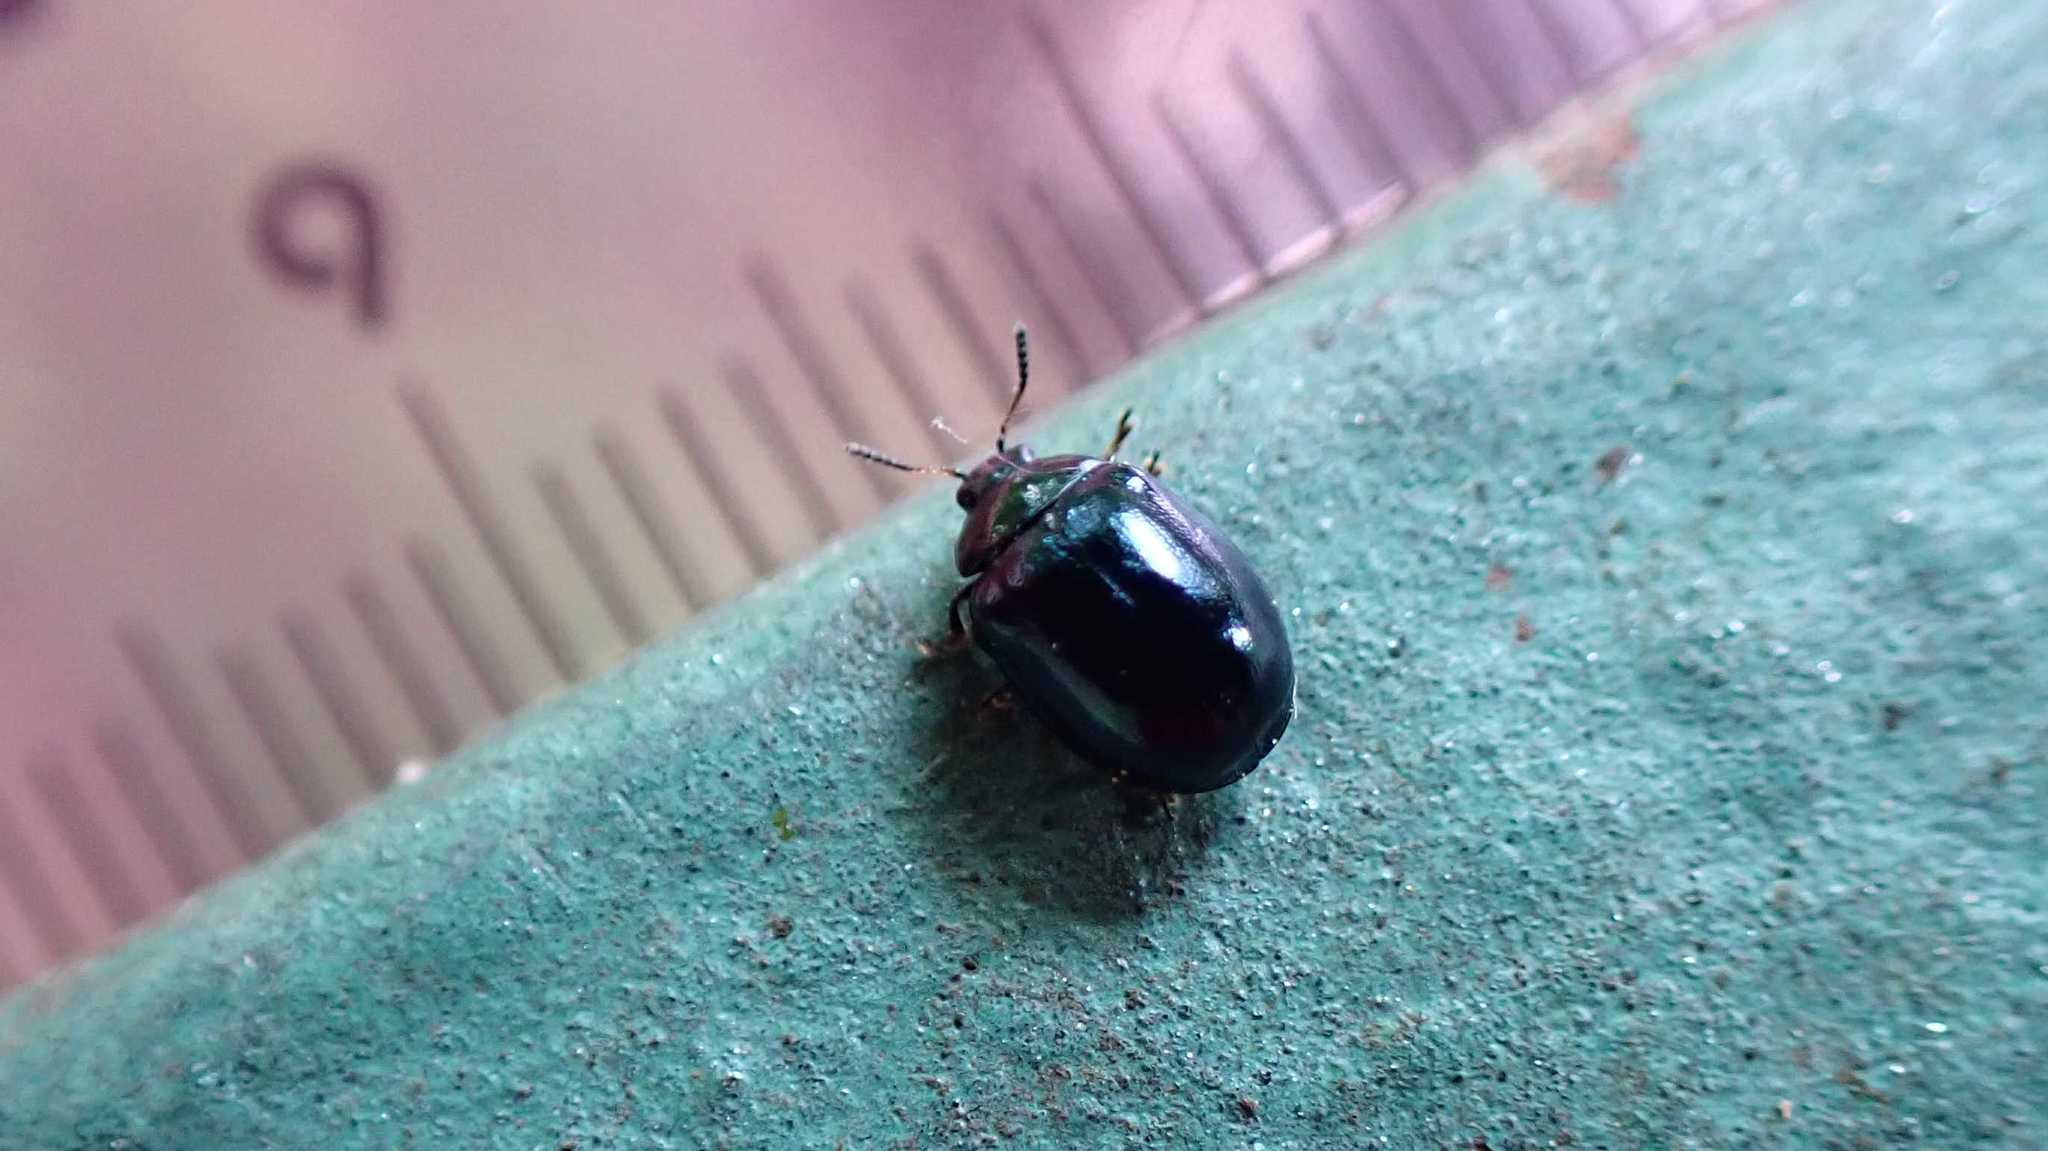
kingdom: Animalia
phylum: Arthropoda
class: Insecta
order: Coleoptera
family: Chrysomelidae
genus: Plagiodera
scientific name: Plagiodera versicolora
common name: Imported willow leaf beetle
